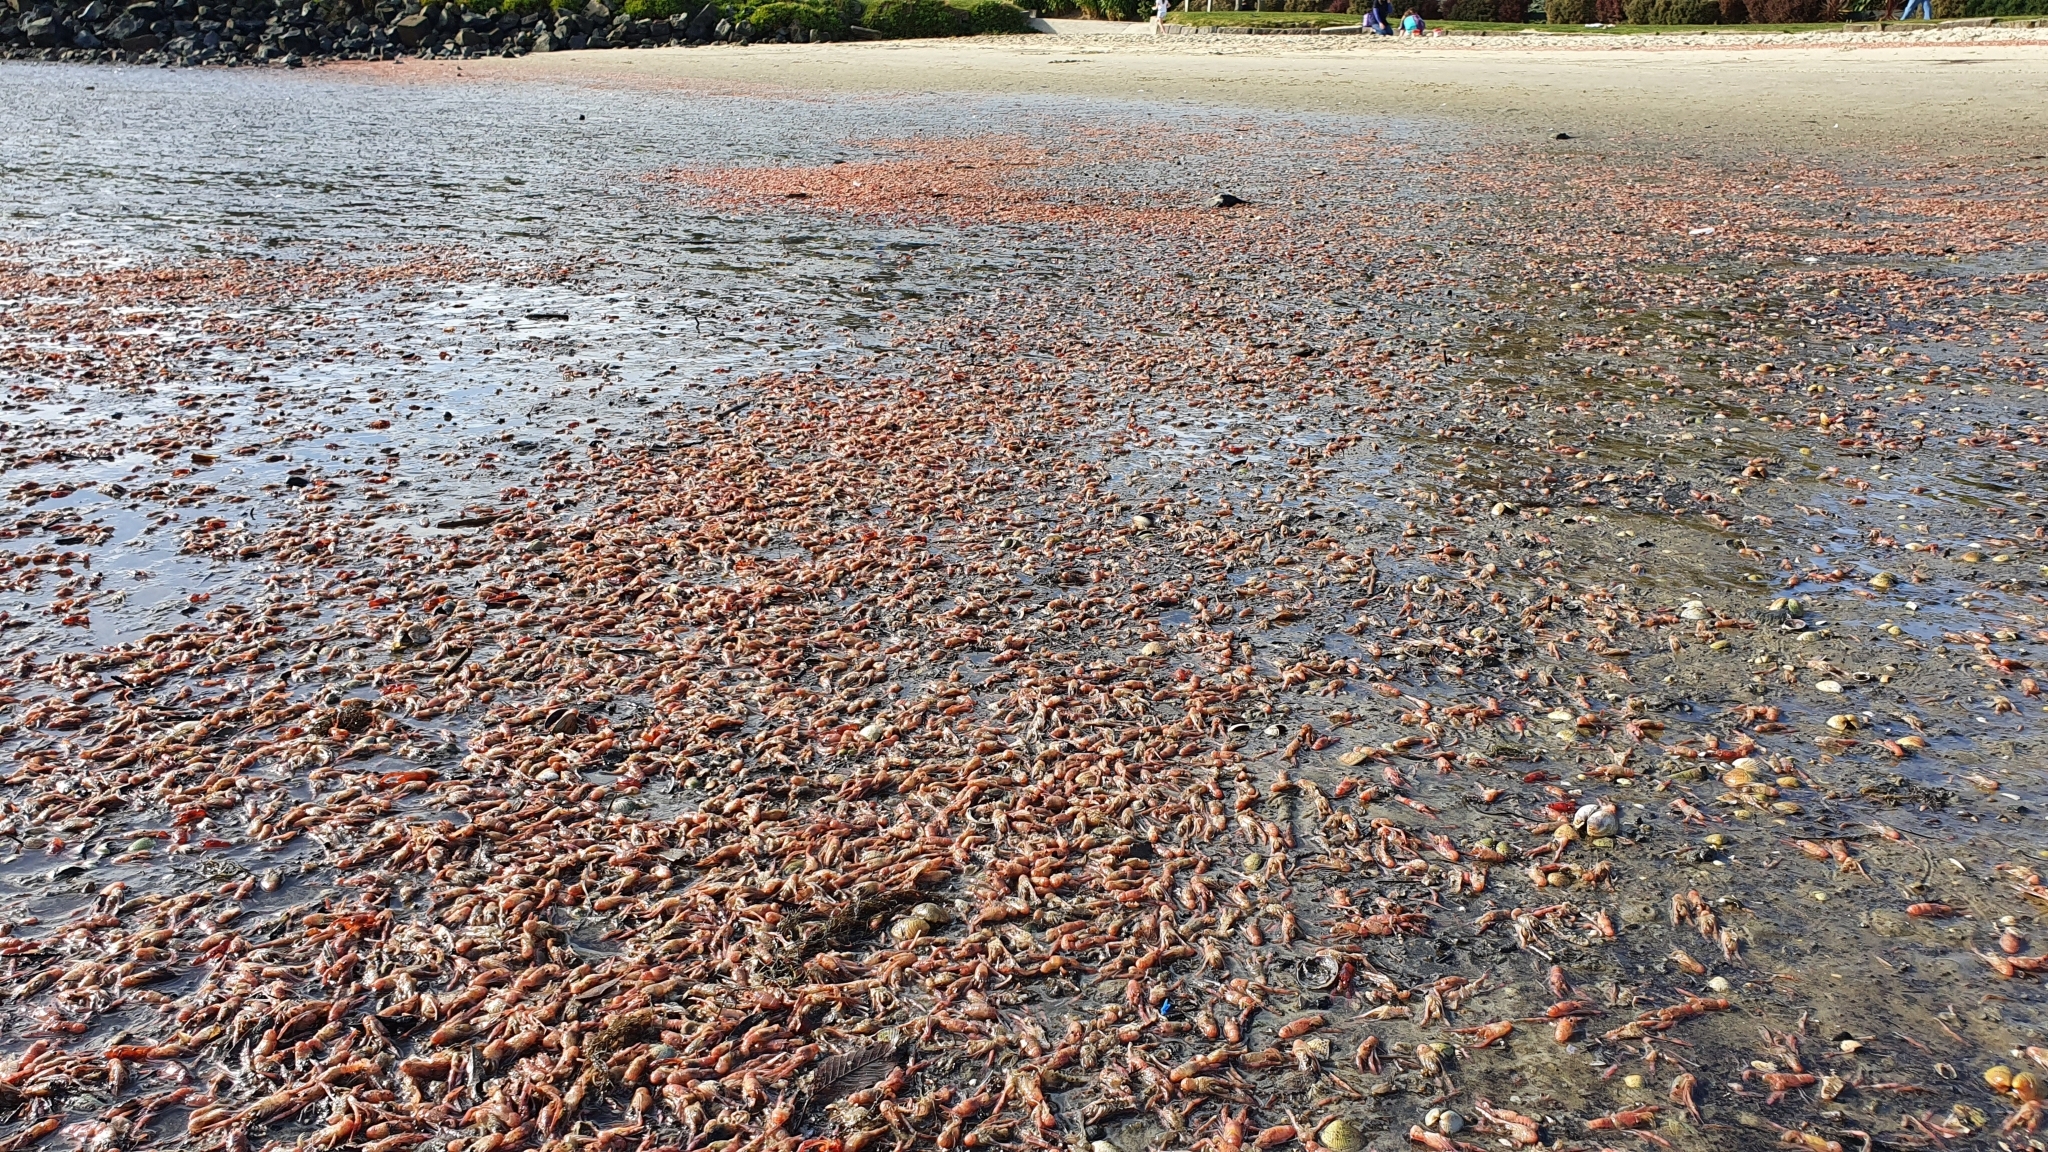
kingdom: Animalia
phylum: Arthropoda
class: Malacostraca
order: Decapoda
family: Munididae
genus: Grimothea
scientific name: Grimothea gregaria
